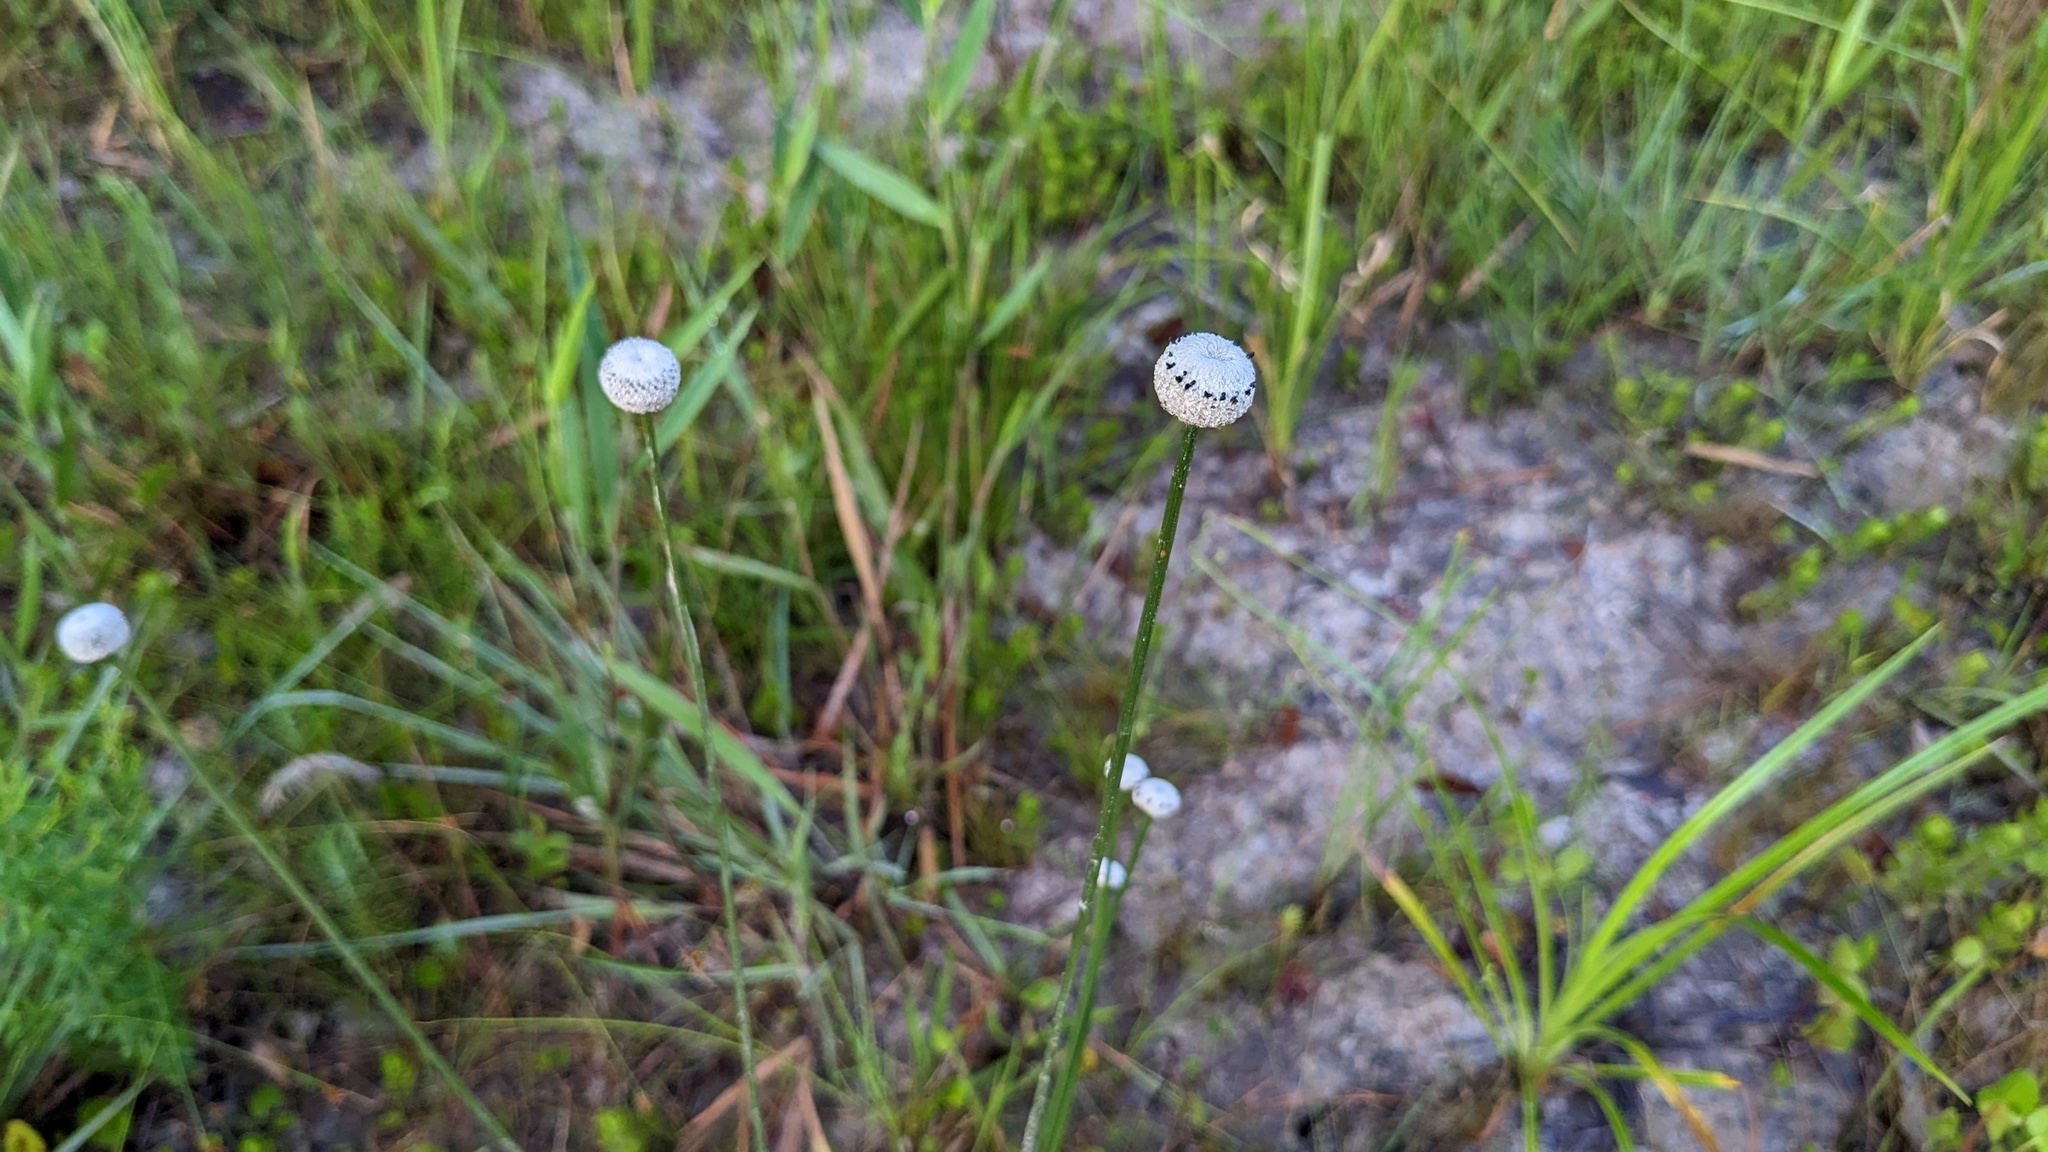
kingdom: Plantae
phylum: Tracheophyta
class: Liliopsida
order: Poales
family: Eriocaulaceae
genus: Eriocaulon
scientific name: Eriocaulon decangulare
